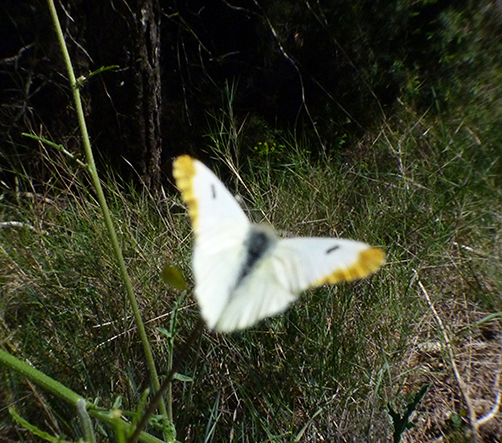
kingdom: Animalia
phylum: Arthropoda
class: Insecta
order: Lepidoptera
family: Pieridae
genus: Anthocharis
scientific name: Anthocharis euphenoides
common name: Provence orange-tip
